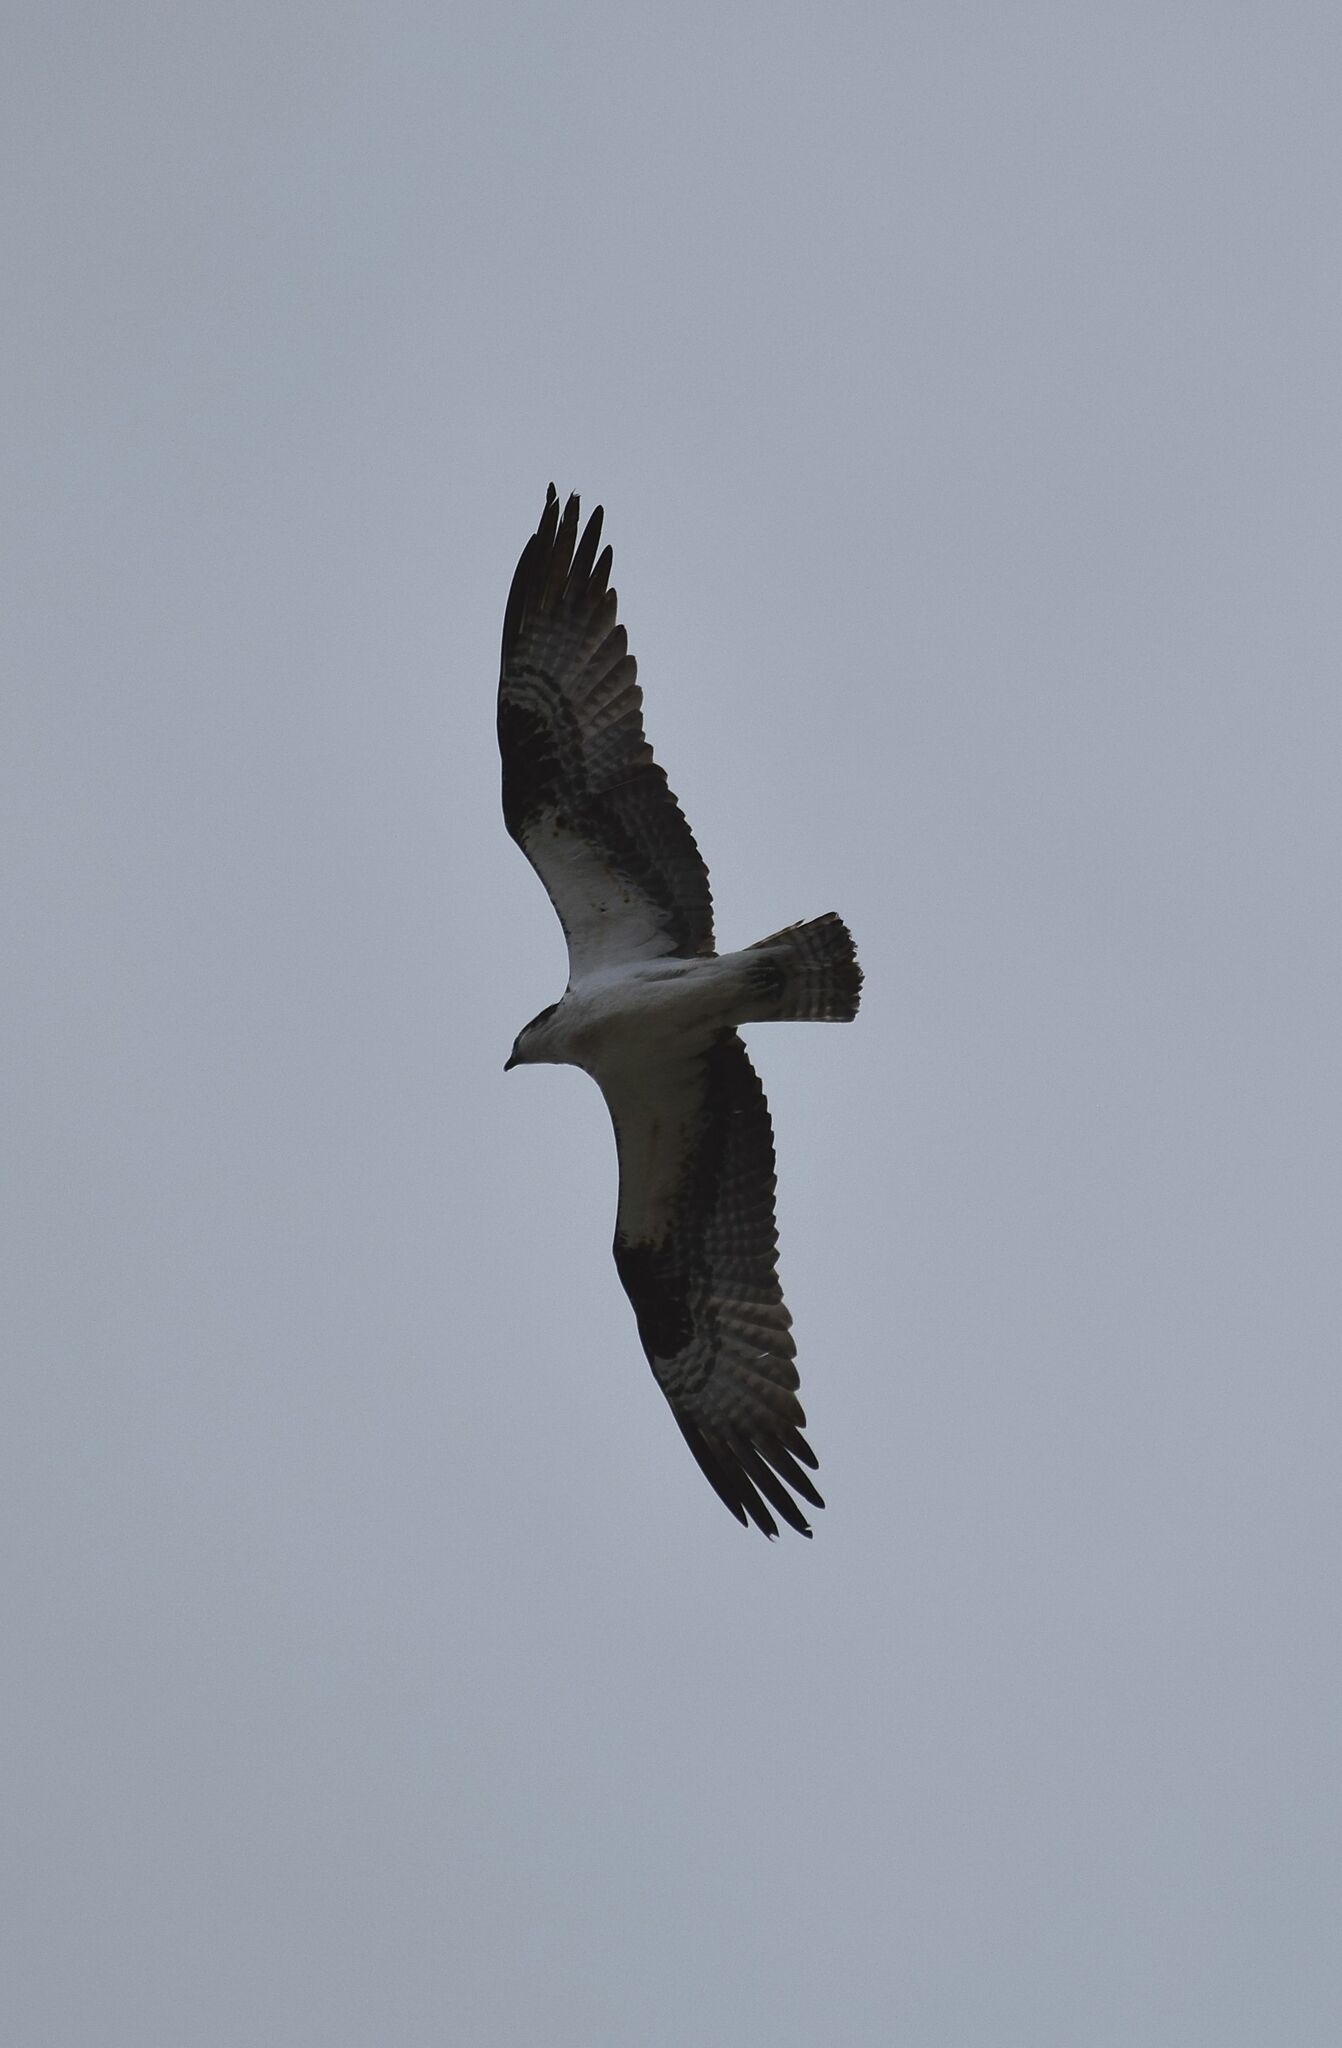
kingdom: Animalia
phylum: Chordata
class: Aves
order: Accipitriformes
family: Pandionidae
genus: Pandion
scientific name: Pandion haliaetus
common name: Osprey
